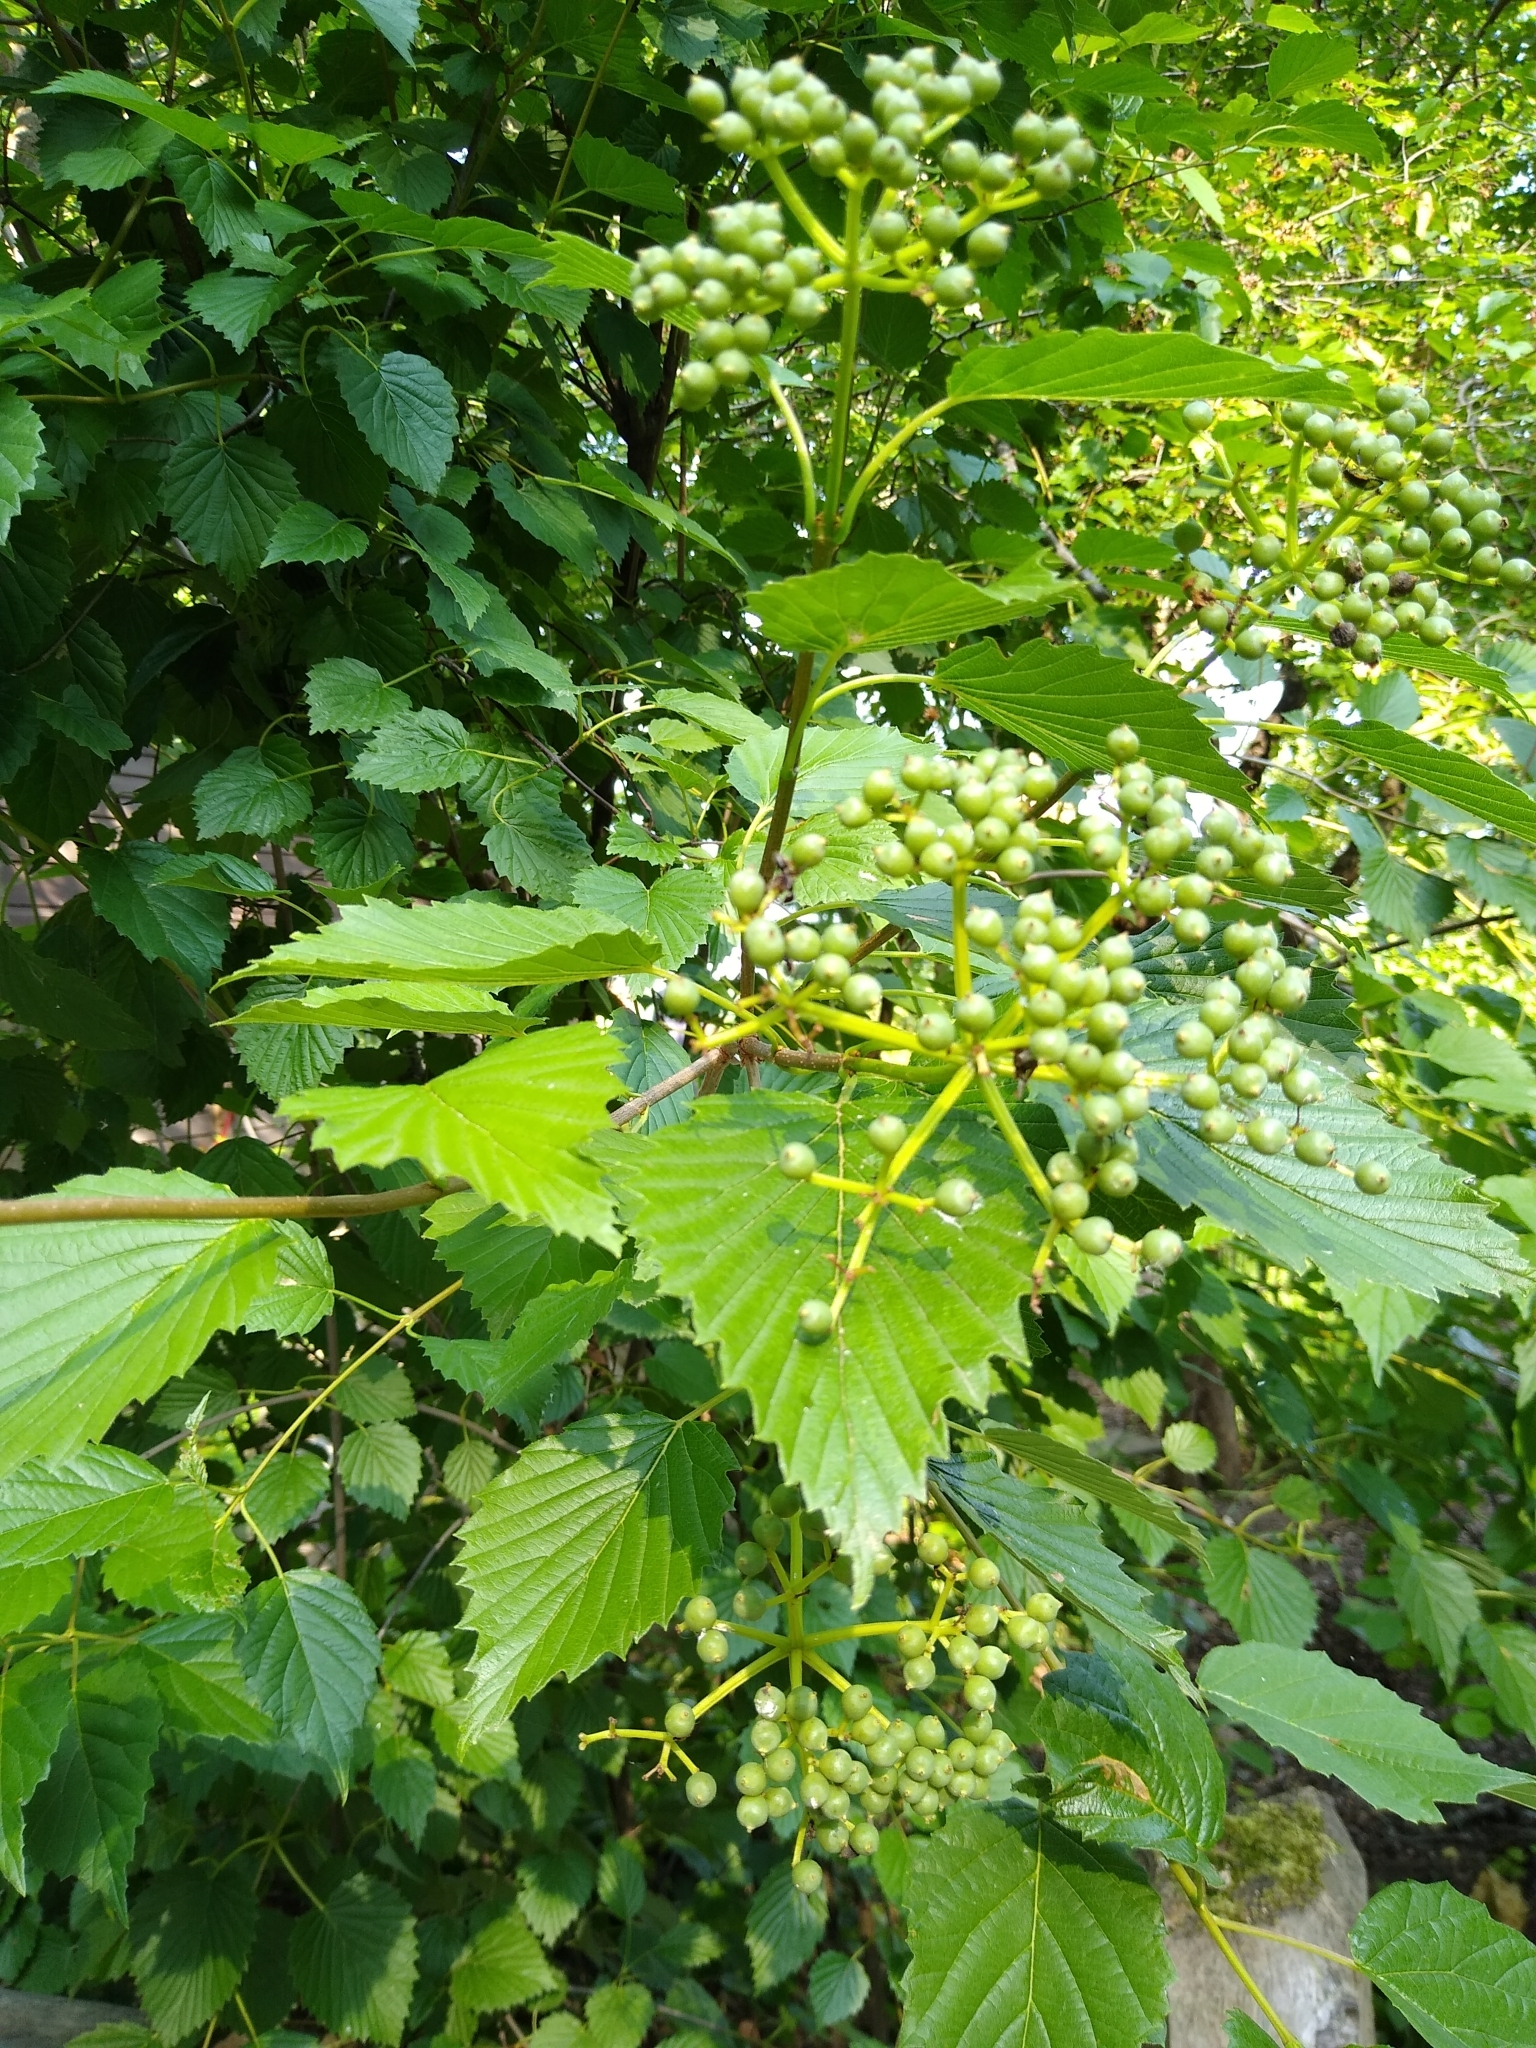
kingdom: Plantae
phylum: Tracheophyta
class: Magnoliopsida
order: Dipsacales
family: Viburnaceae
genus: Viburnum
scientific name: Viburnum recognitum
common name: Northern arrow-wood
